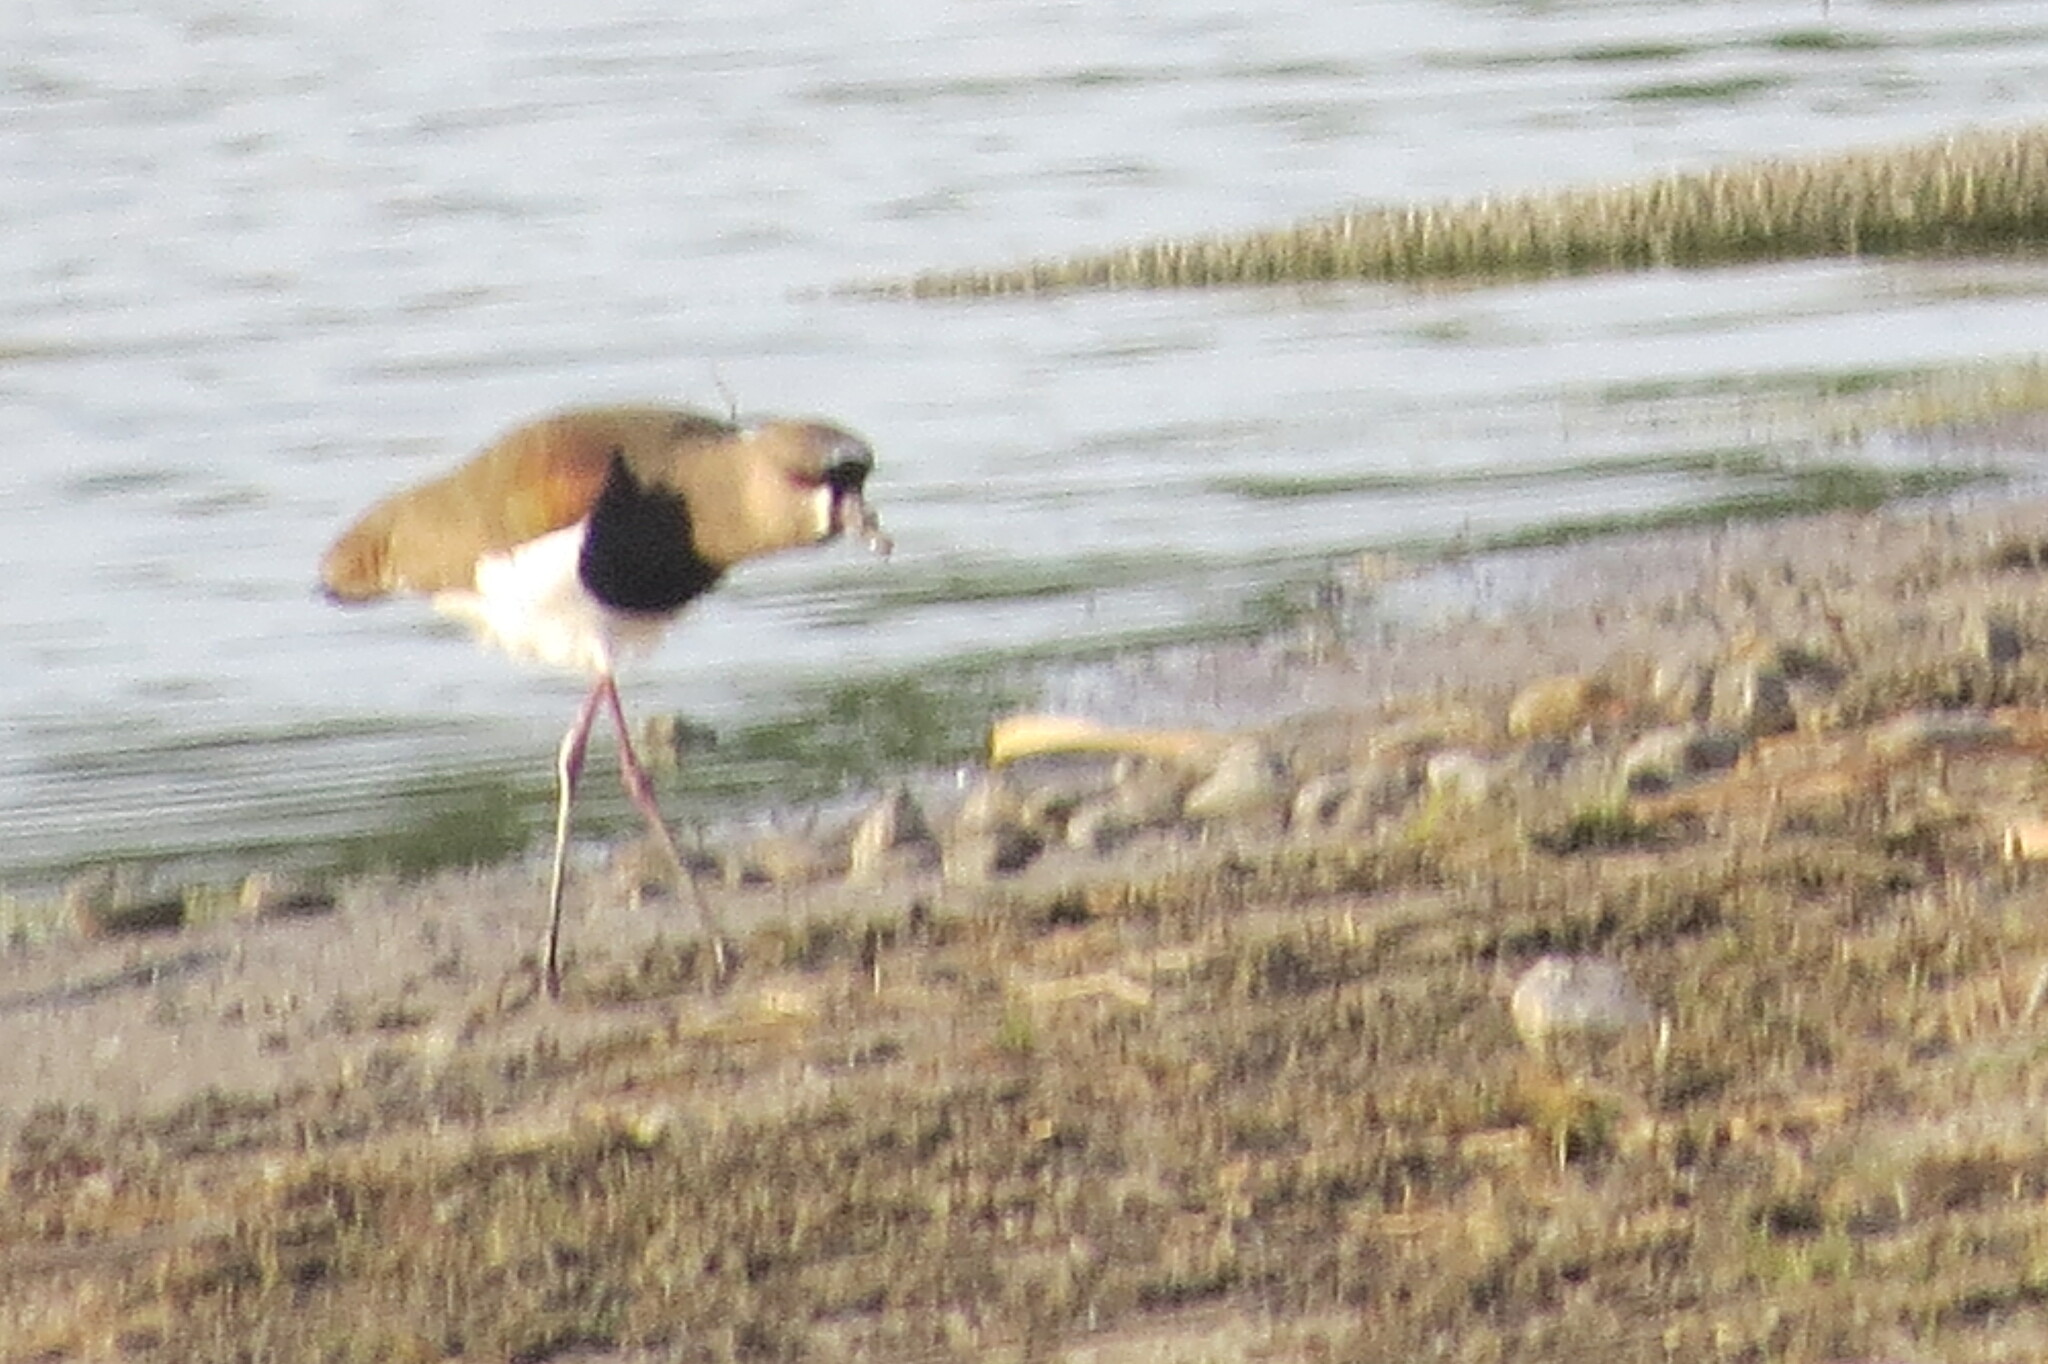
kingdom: Animalia
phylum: Chordata
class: Aves
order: Charadriiformes
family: Charadriidae
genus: Vanellus
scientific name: Vanellus chilensis
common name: Southern lapwing
